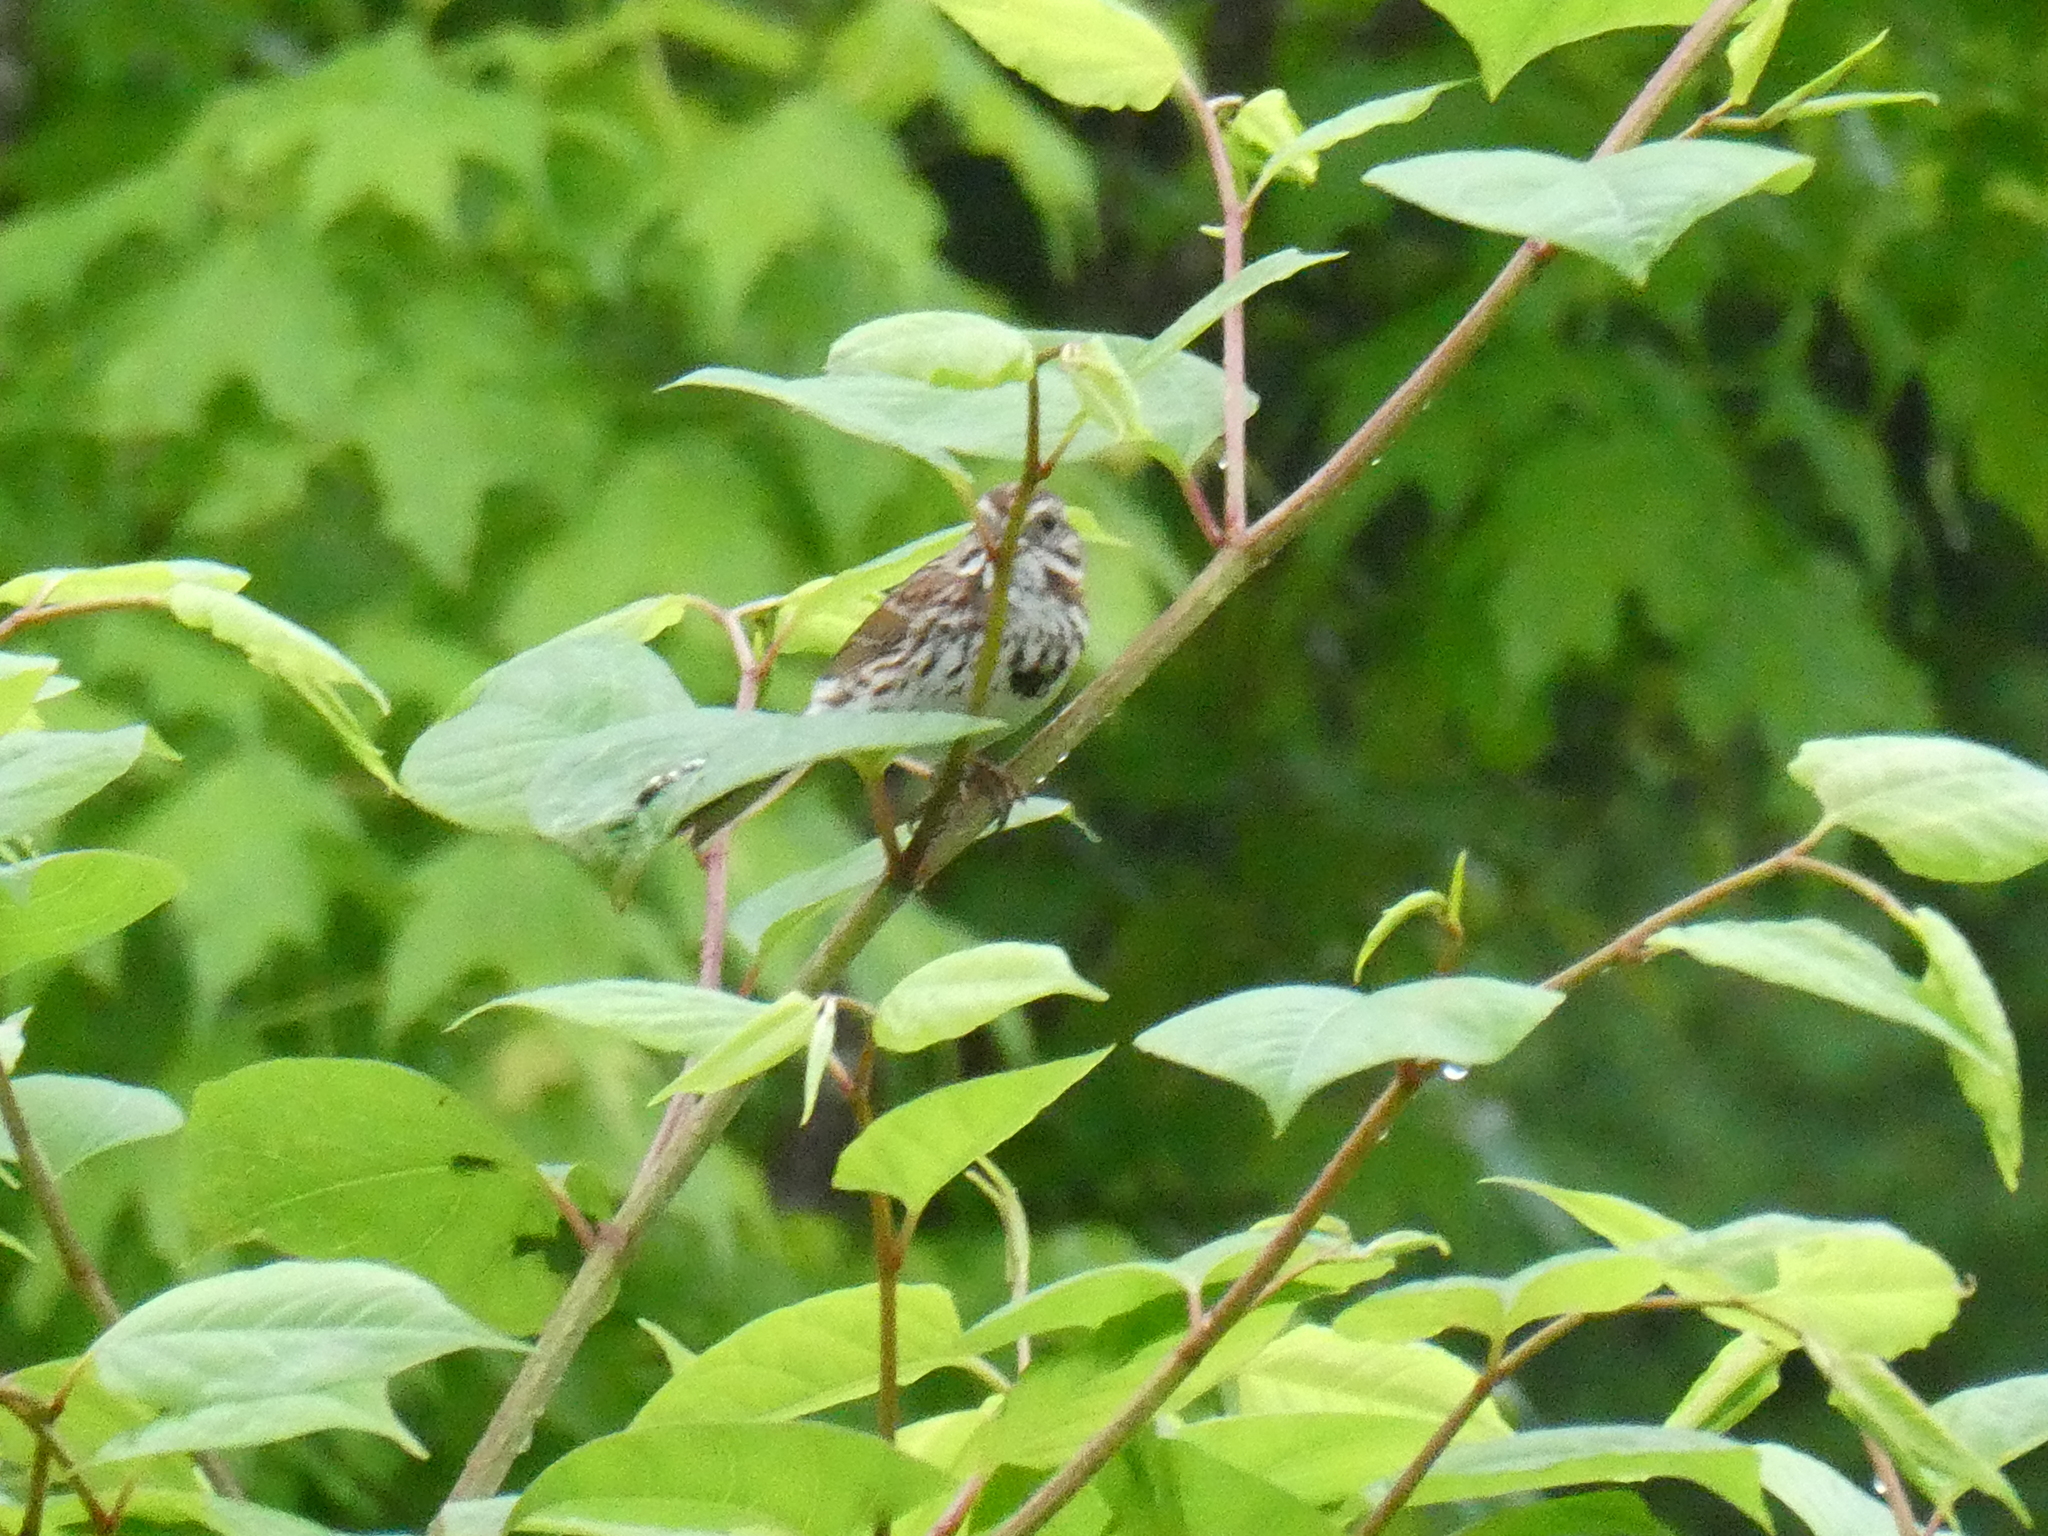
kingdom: Animalia
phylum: Chordata
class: Aves
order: Passeriformes
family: Passerellidae
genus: Melospiza
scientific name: Melospiza melodia
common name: Song sparrow
